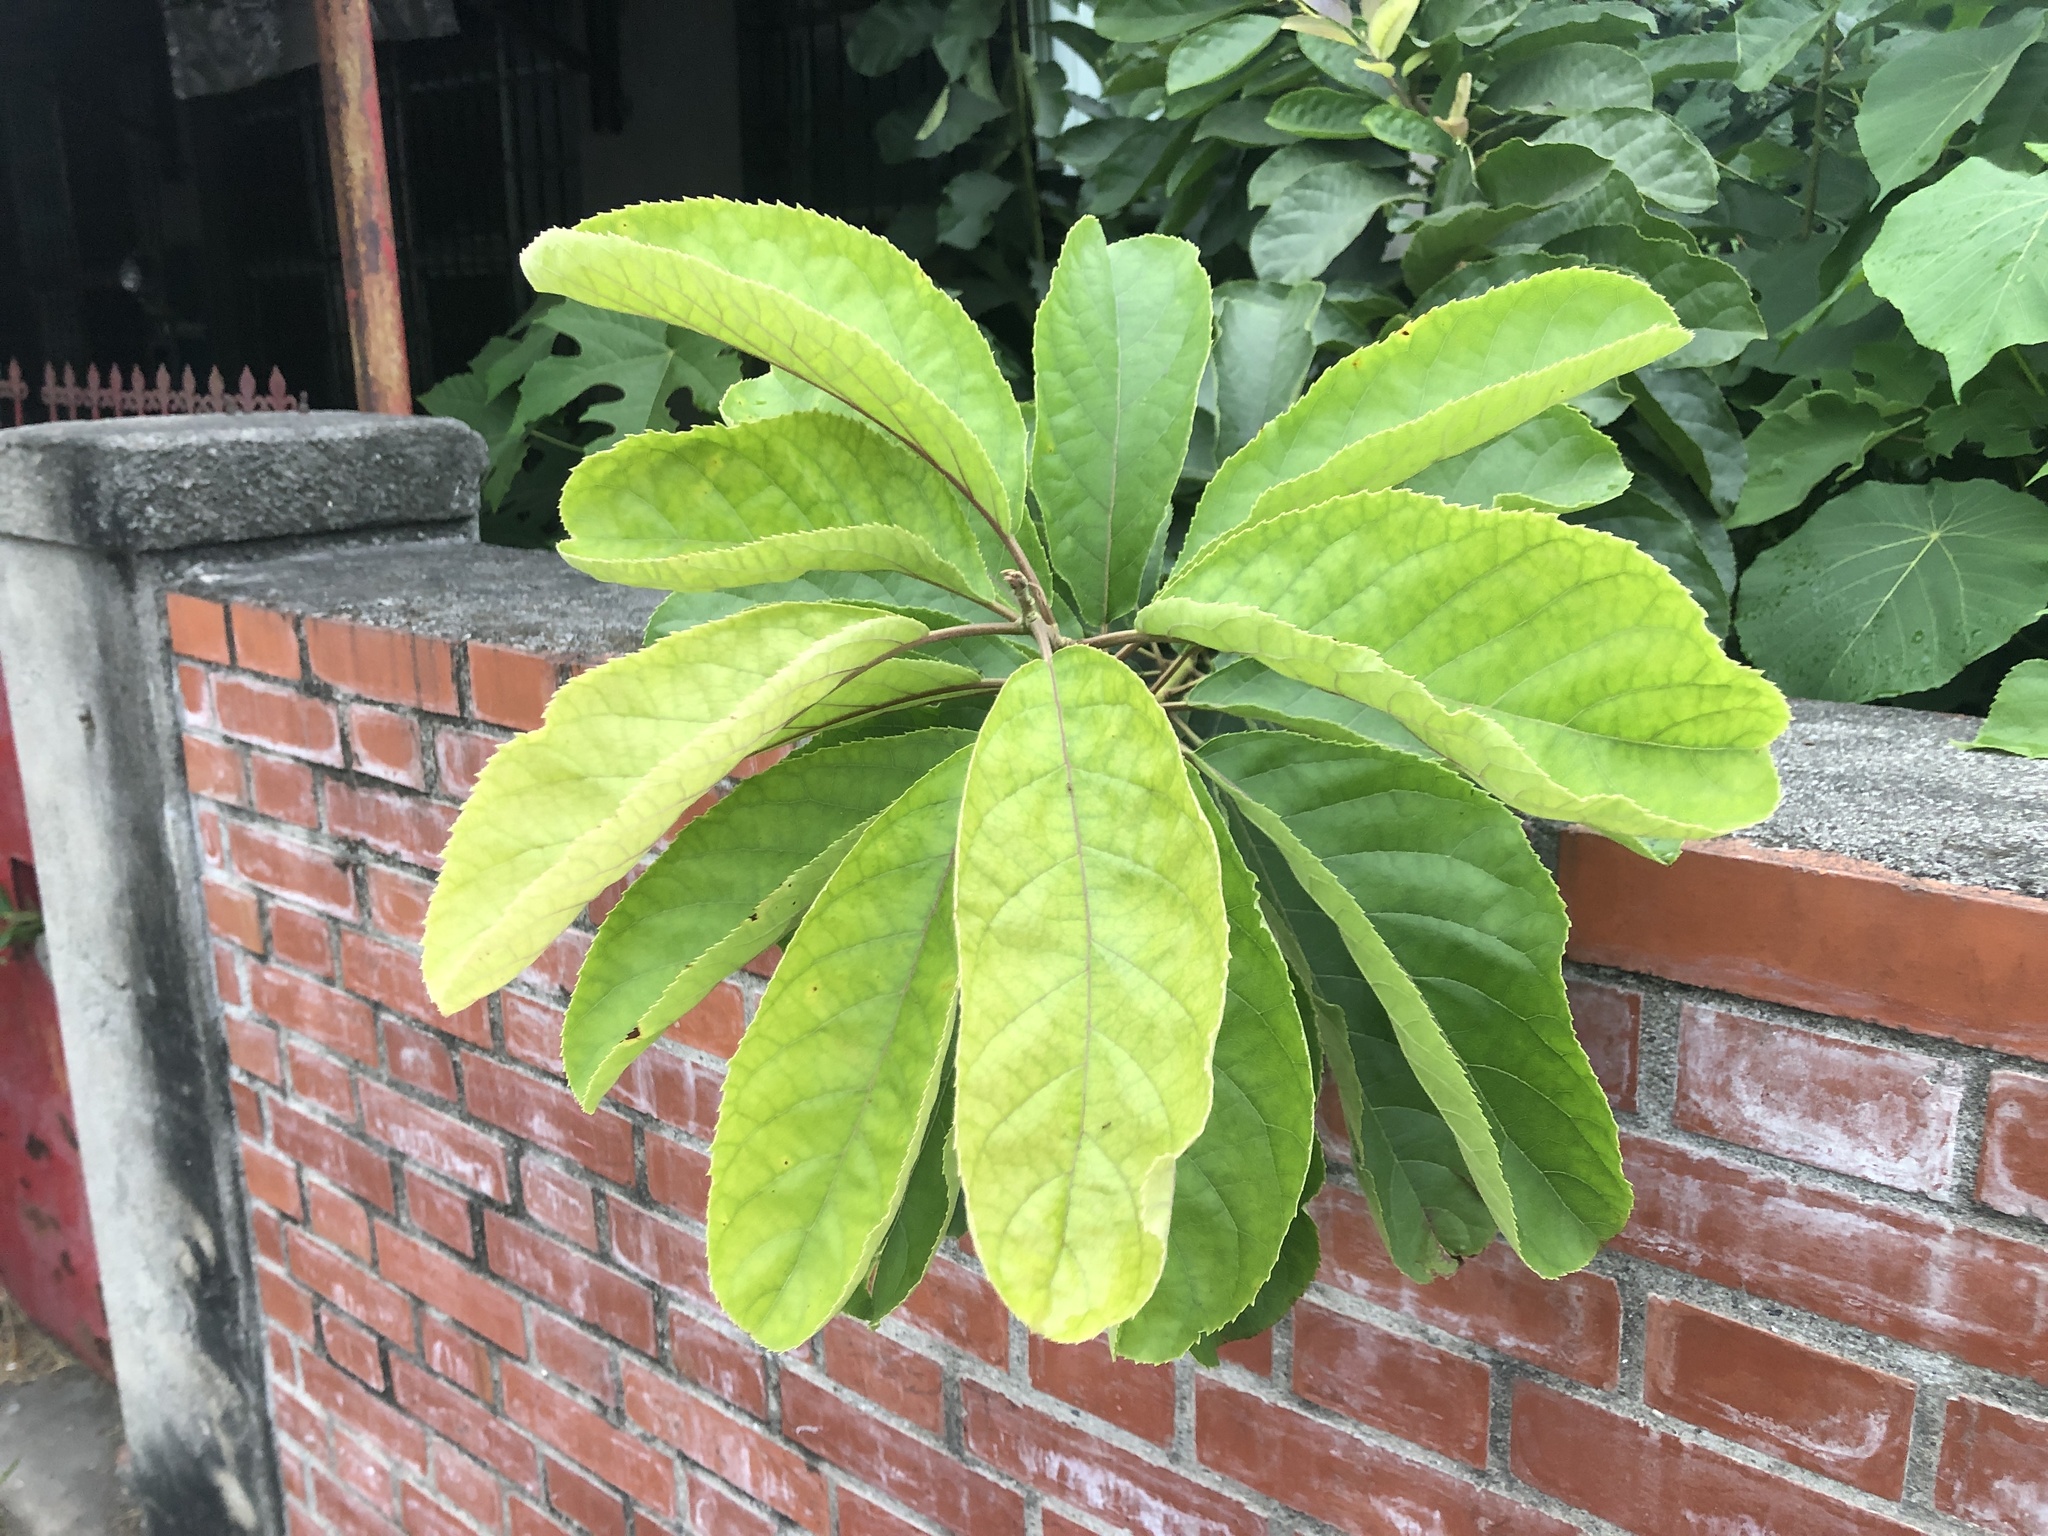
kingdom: Plantae
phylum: Tracheophyta
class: Magnoliopsida
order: Boraginales
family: Ehretiaceae
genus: Ehretia
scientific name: Ehretia acuminata
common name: Kodo wood
